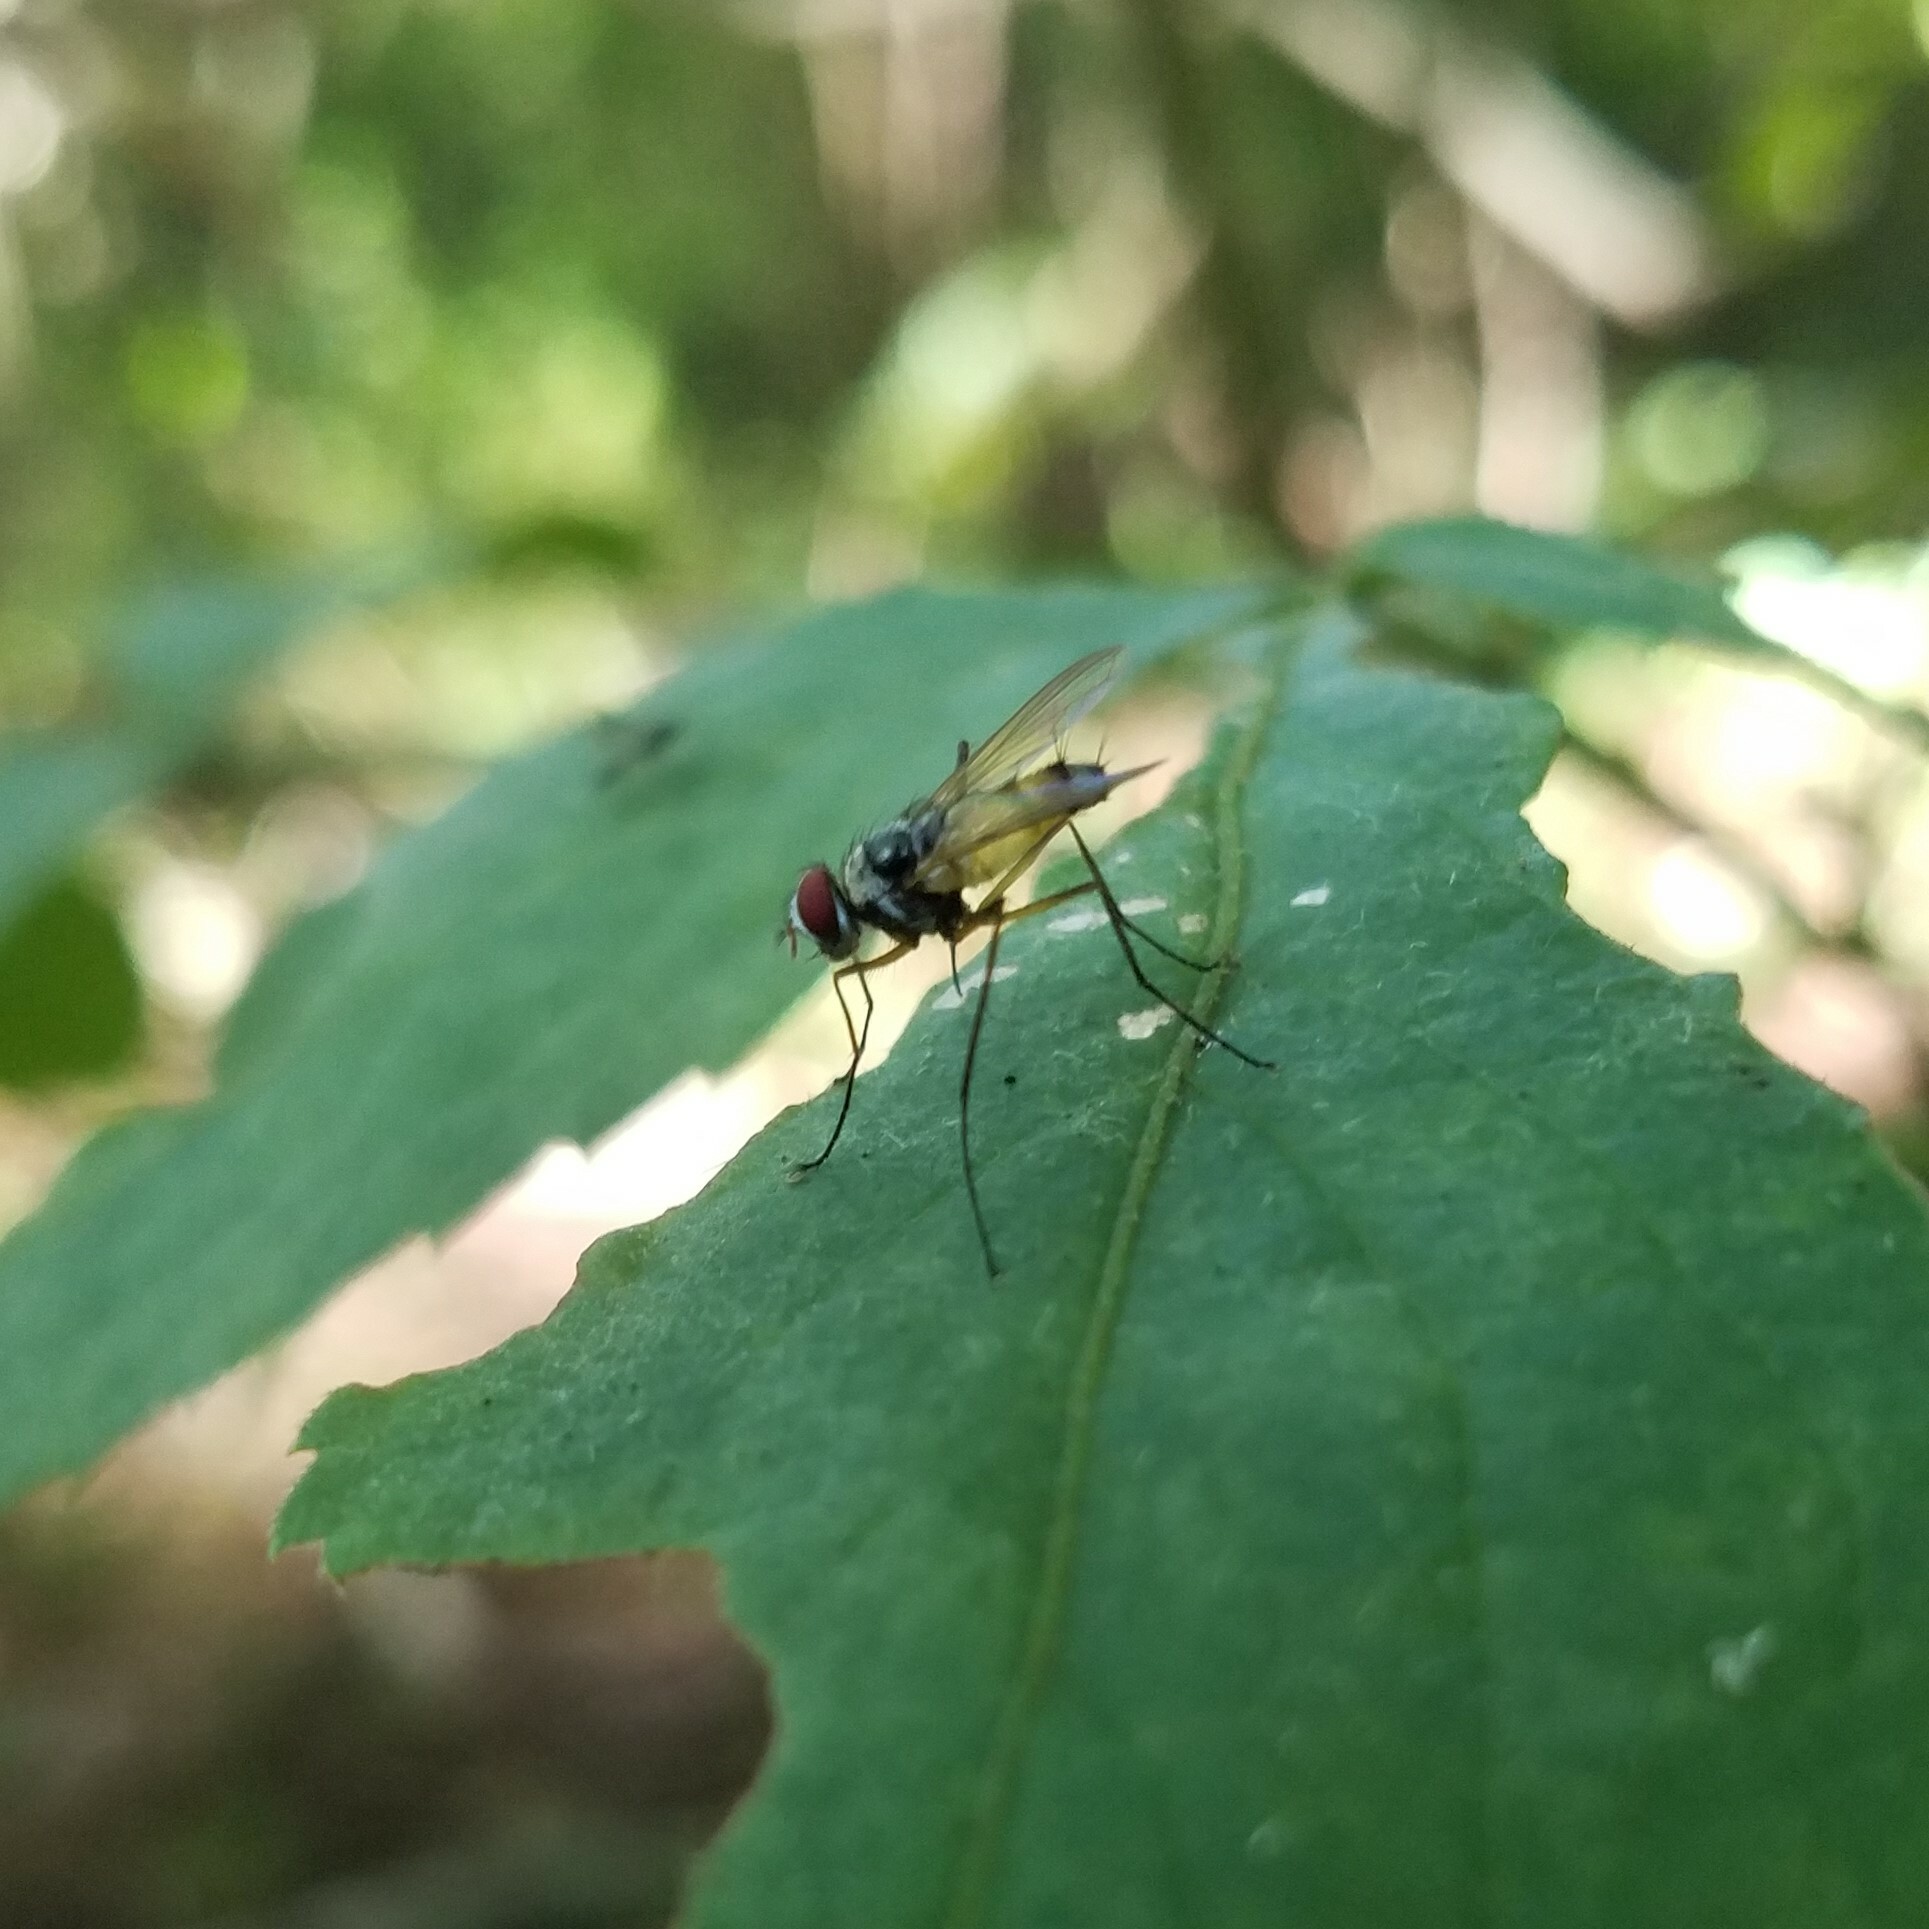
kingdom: Animalia
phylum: Arthropoda
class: Insecta
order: Diptera
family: Tachinidae
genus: Cholomyia
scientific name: Cholomyia inaequipes
